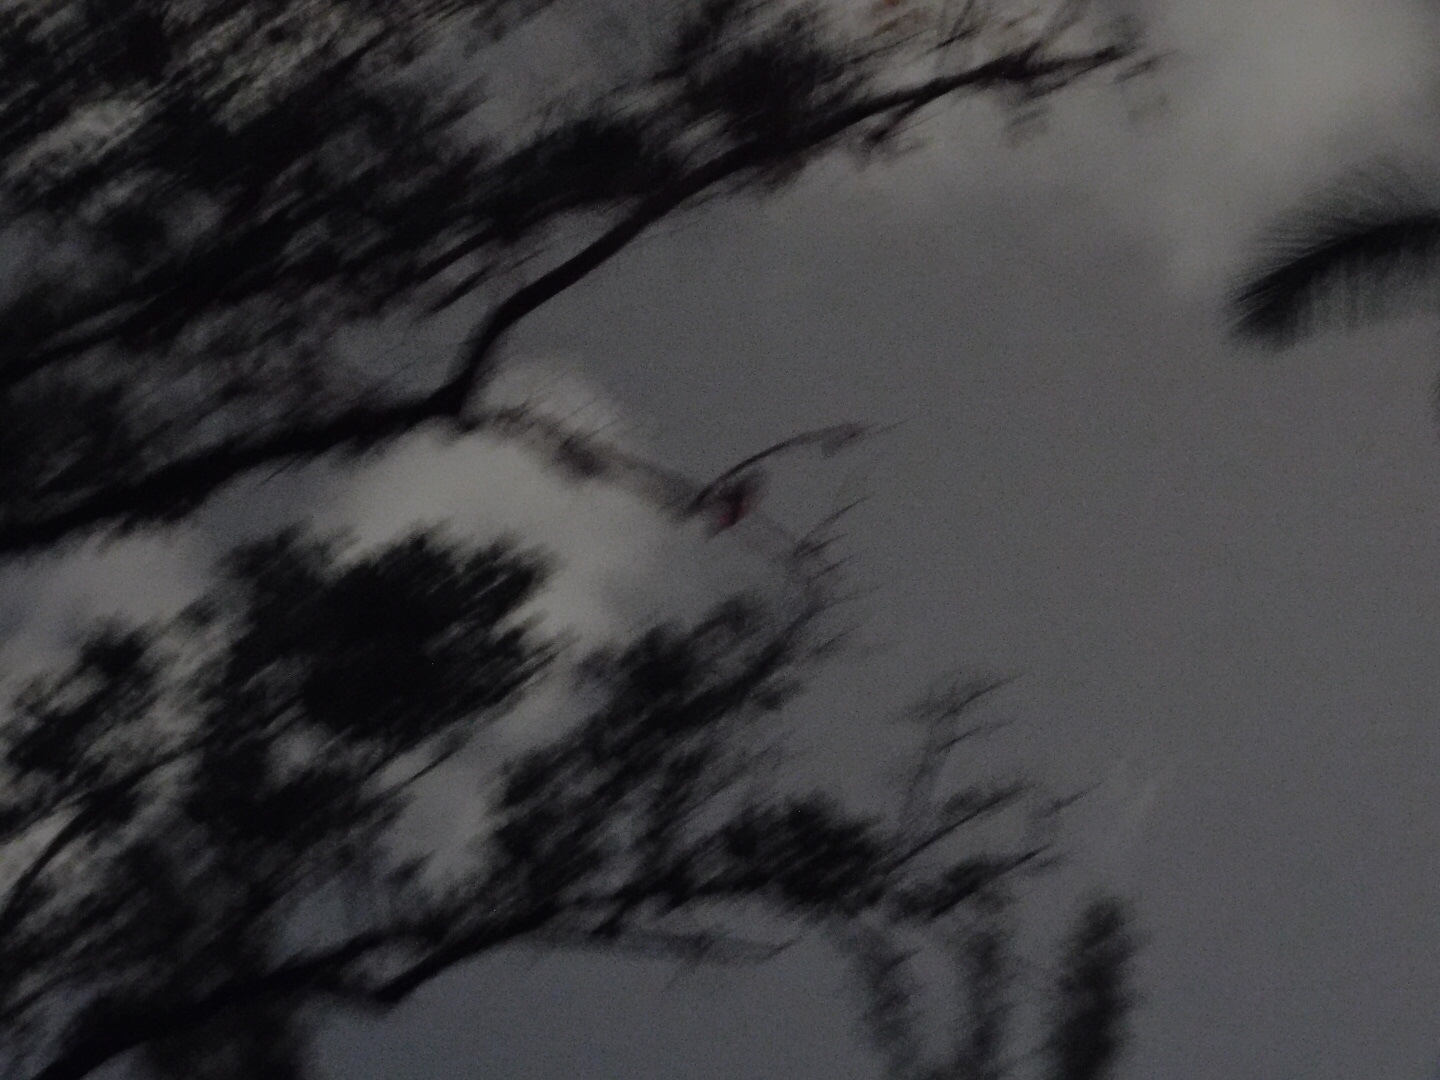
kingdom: Animalia
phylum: Chordata
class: Aves
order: Strigiformes
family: Strigidae
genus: Megascops
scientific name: Megascops asio
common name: Eastern screech-owl
